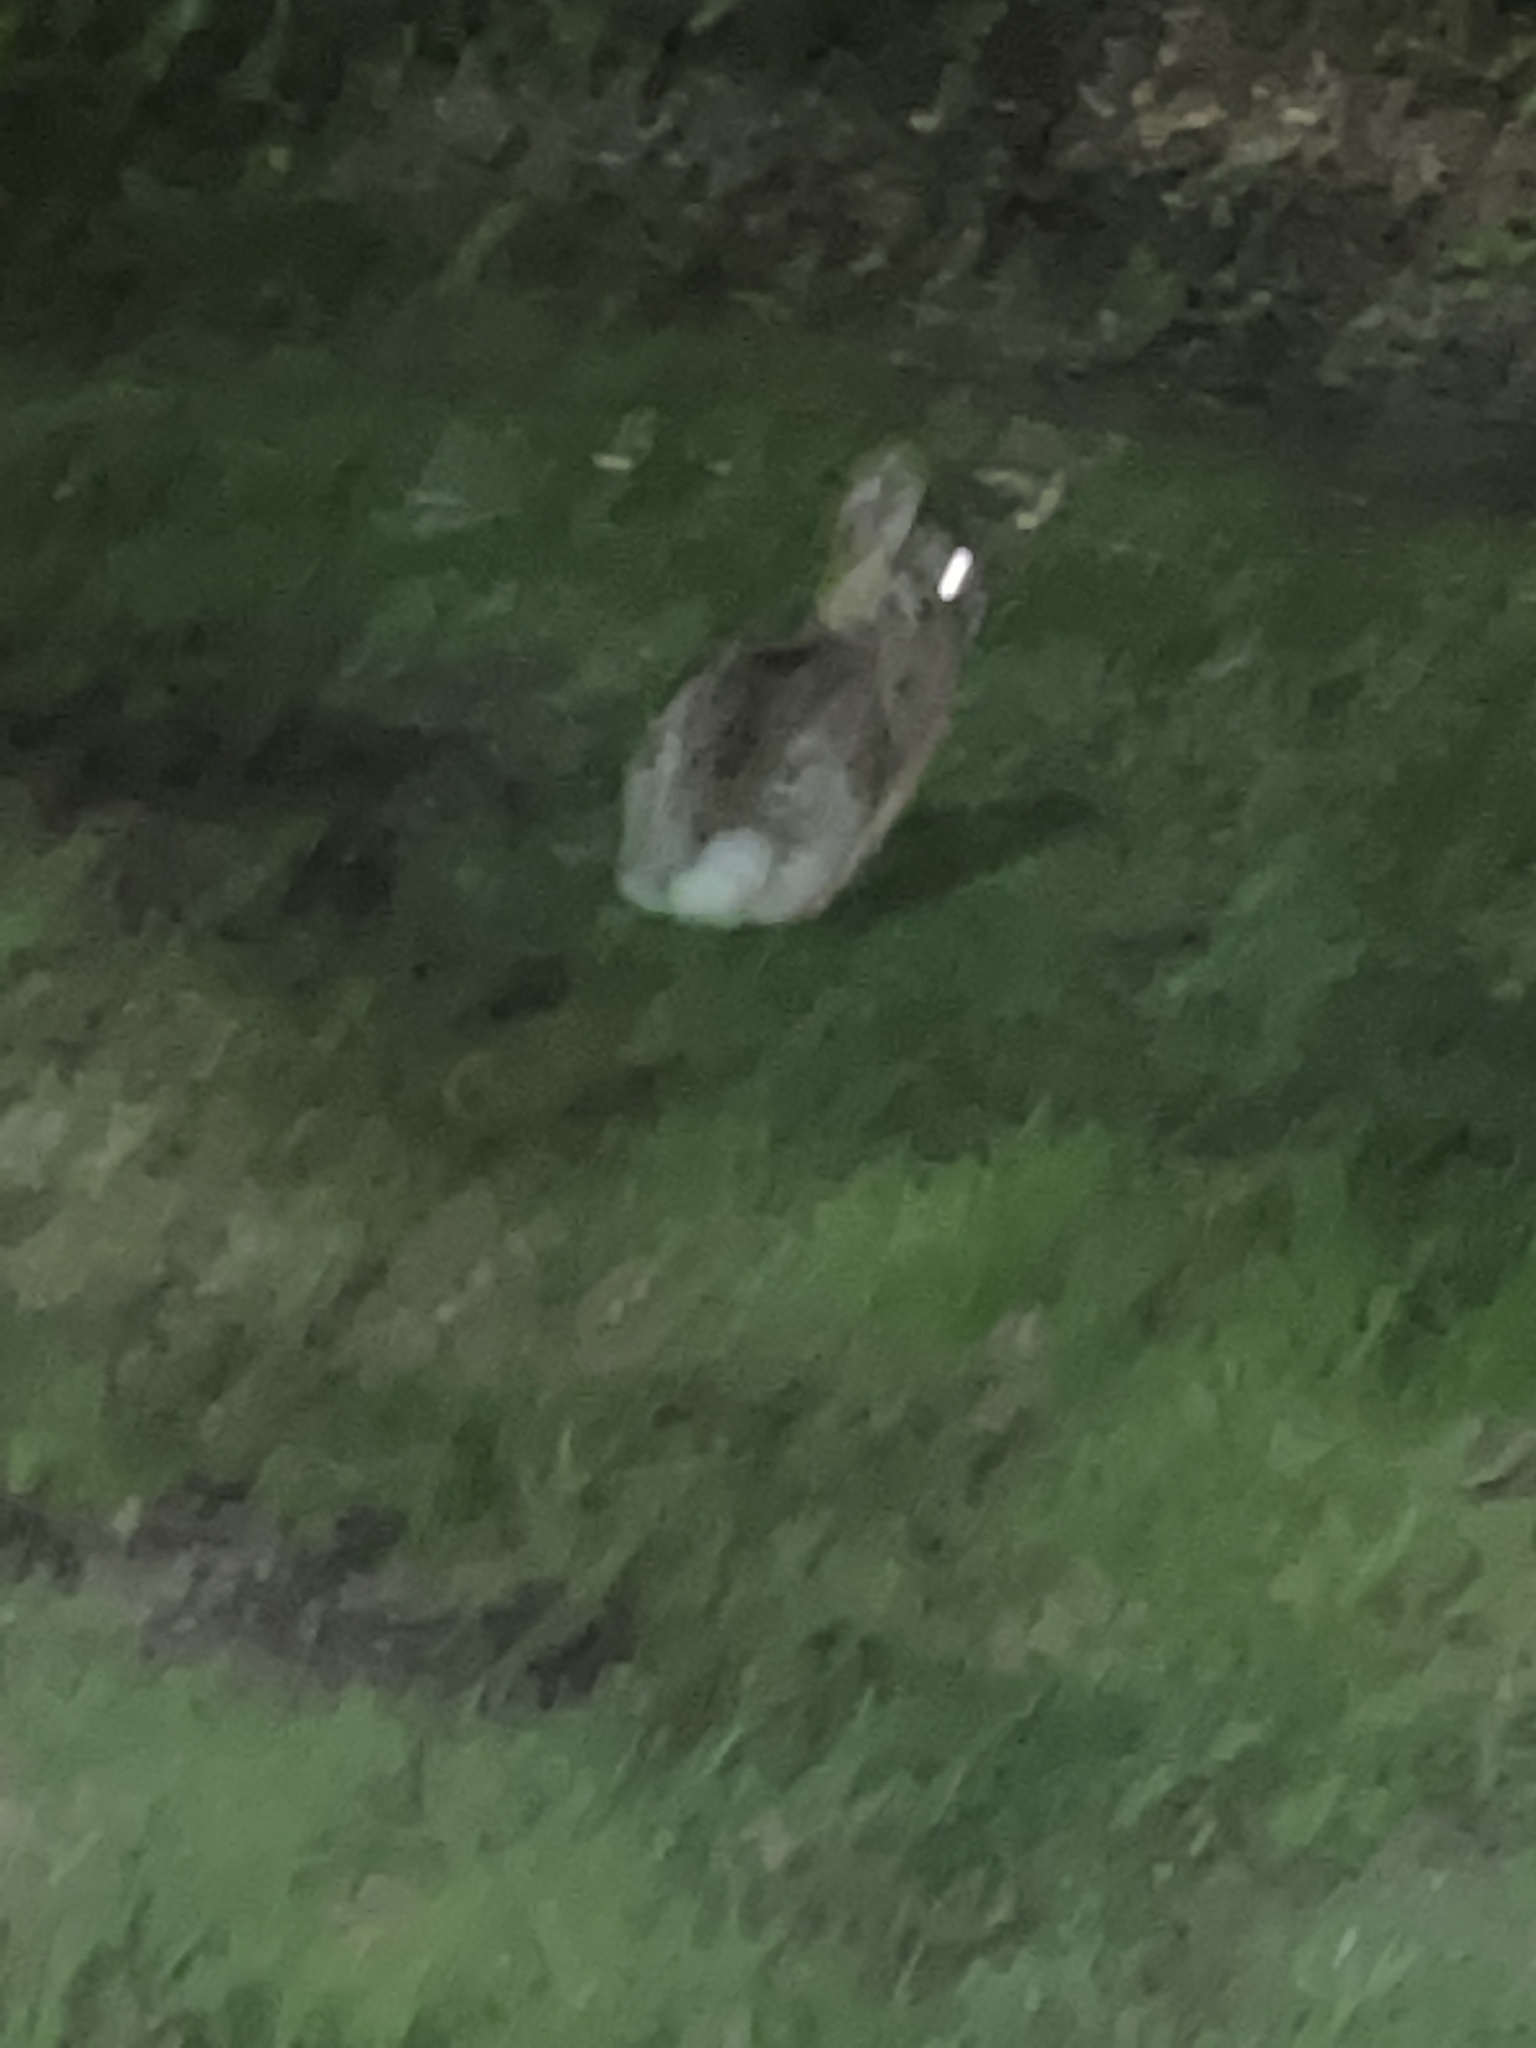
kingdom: Animalia
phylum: Chordata
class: Mammalia
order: Lagomorpha
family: Leporidae
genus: Sylvilagus
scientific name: Sylvilagus floridanus
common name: Eastern cottontail
